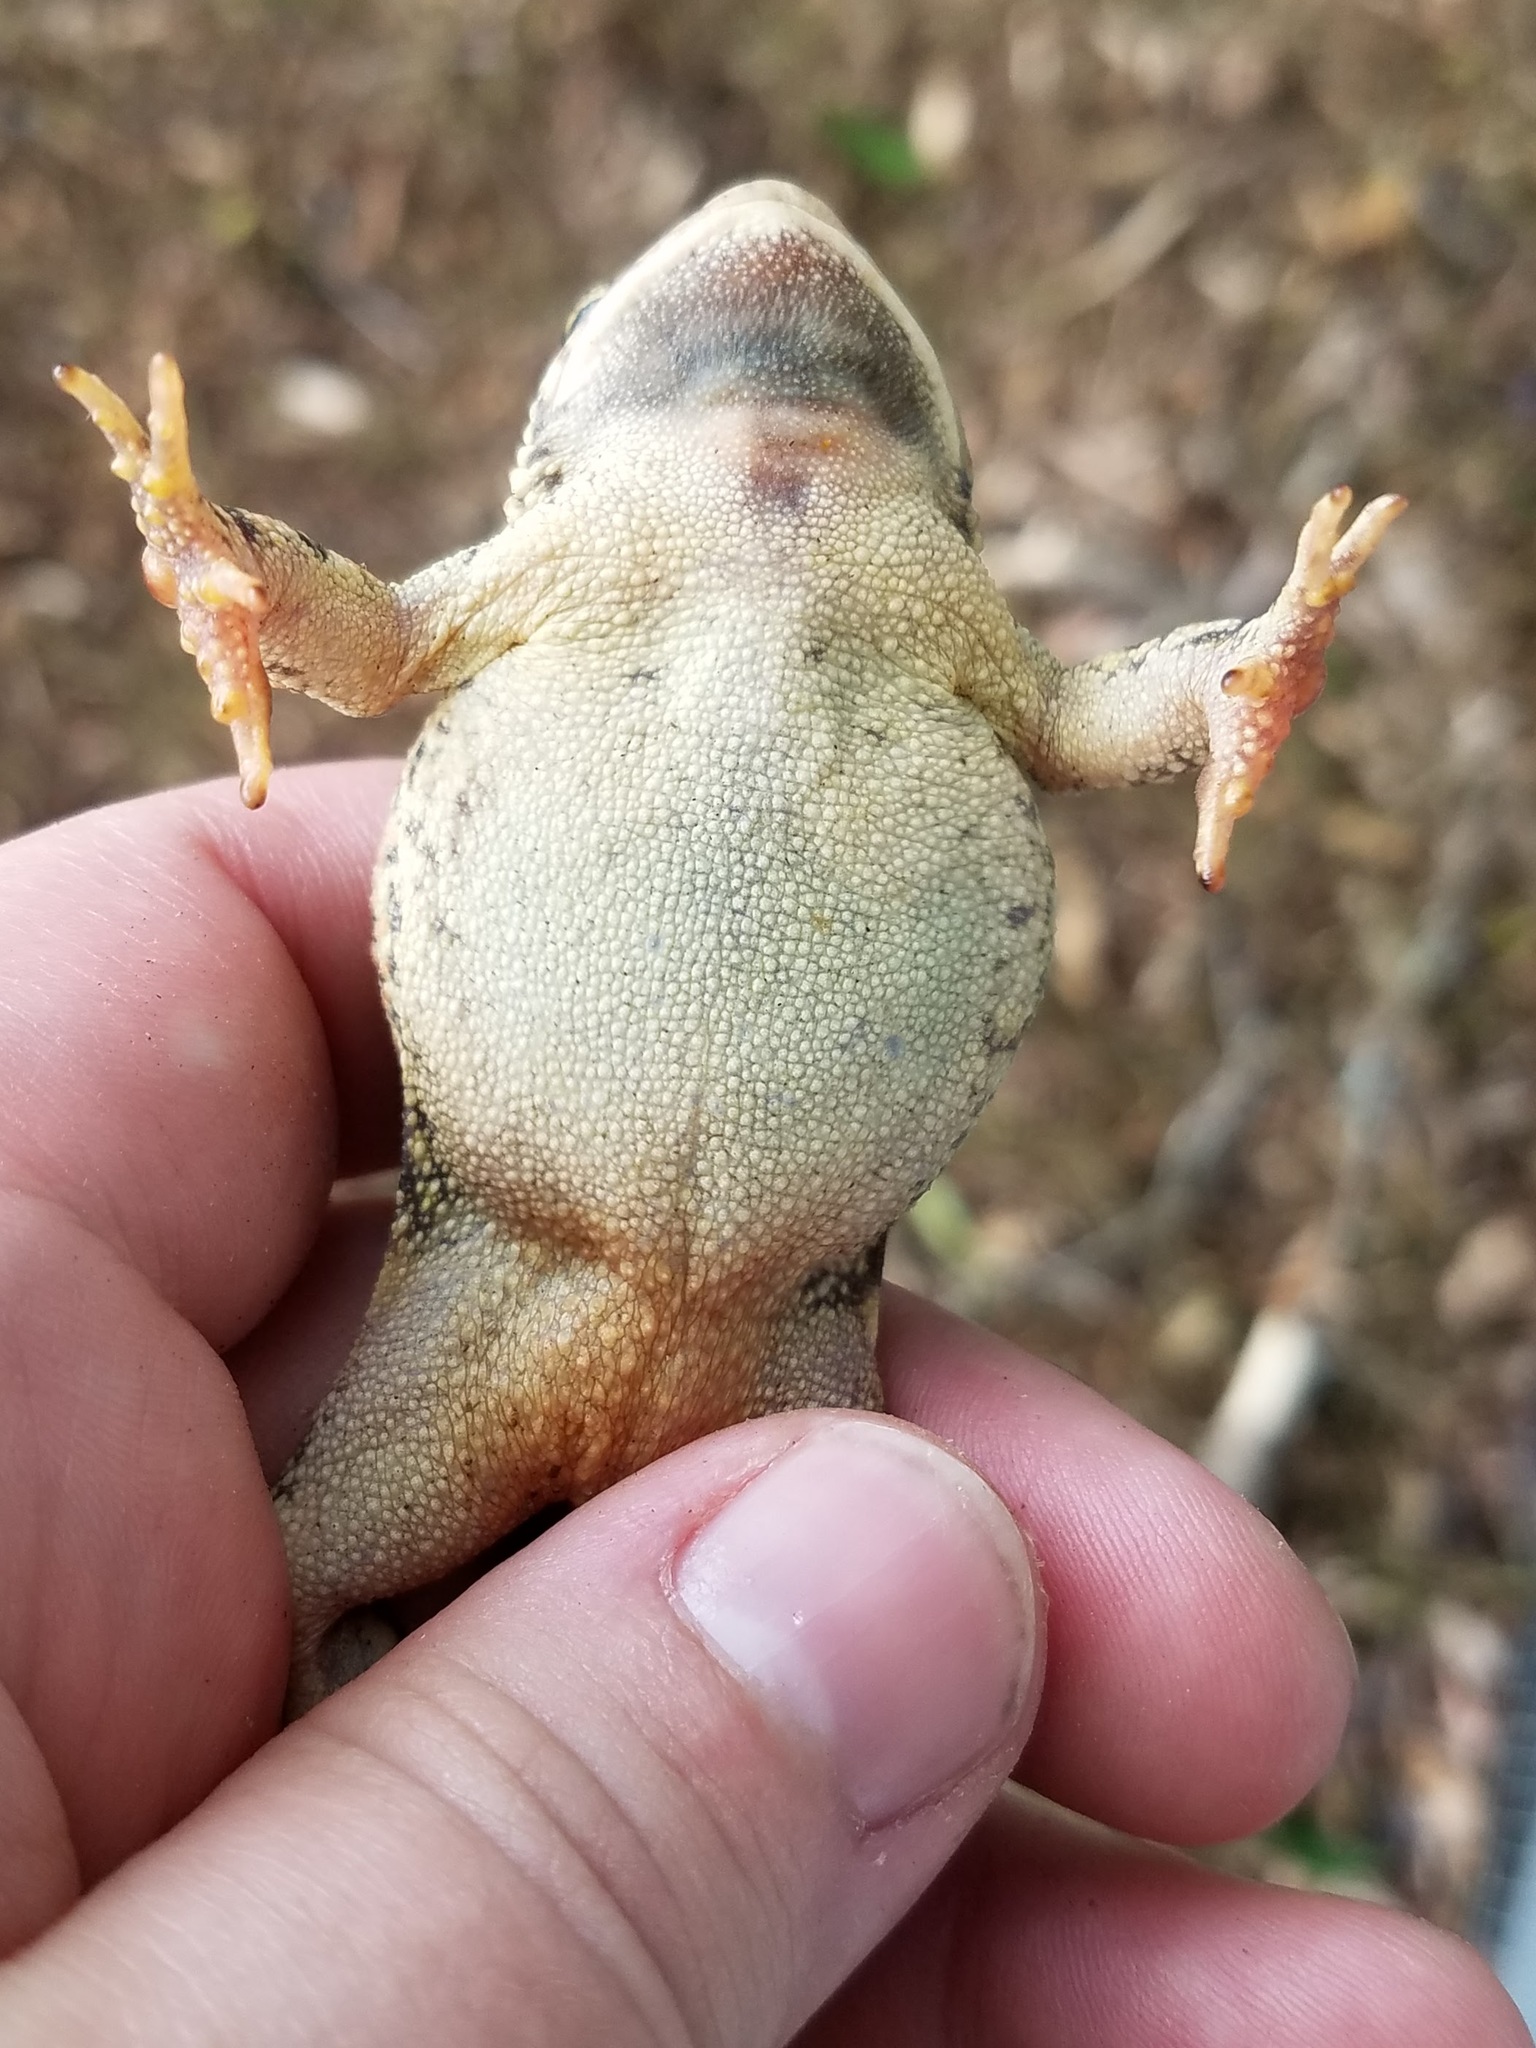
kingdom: Animalia
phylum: Chordata
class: Amphibia
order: Anura
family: Bufonidae
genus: Anaxyrus
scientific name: Anaxyrus fowleri
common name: Fowler's toad
